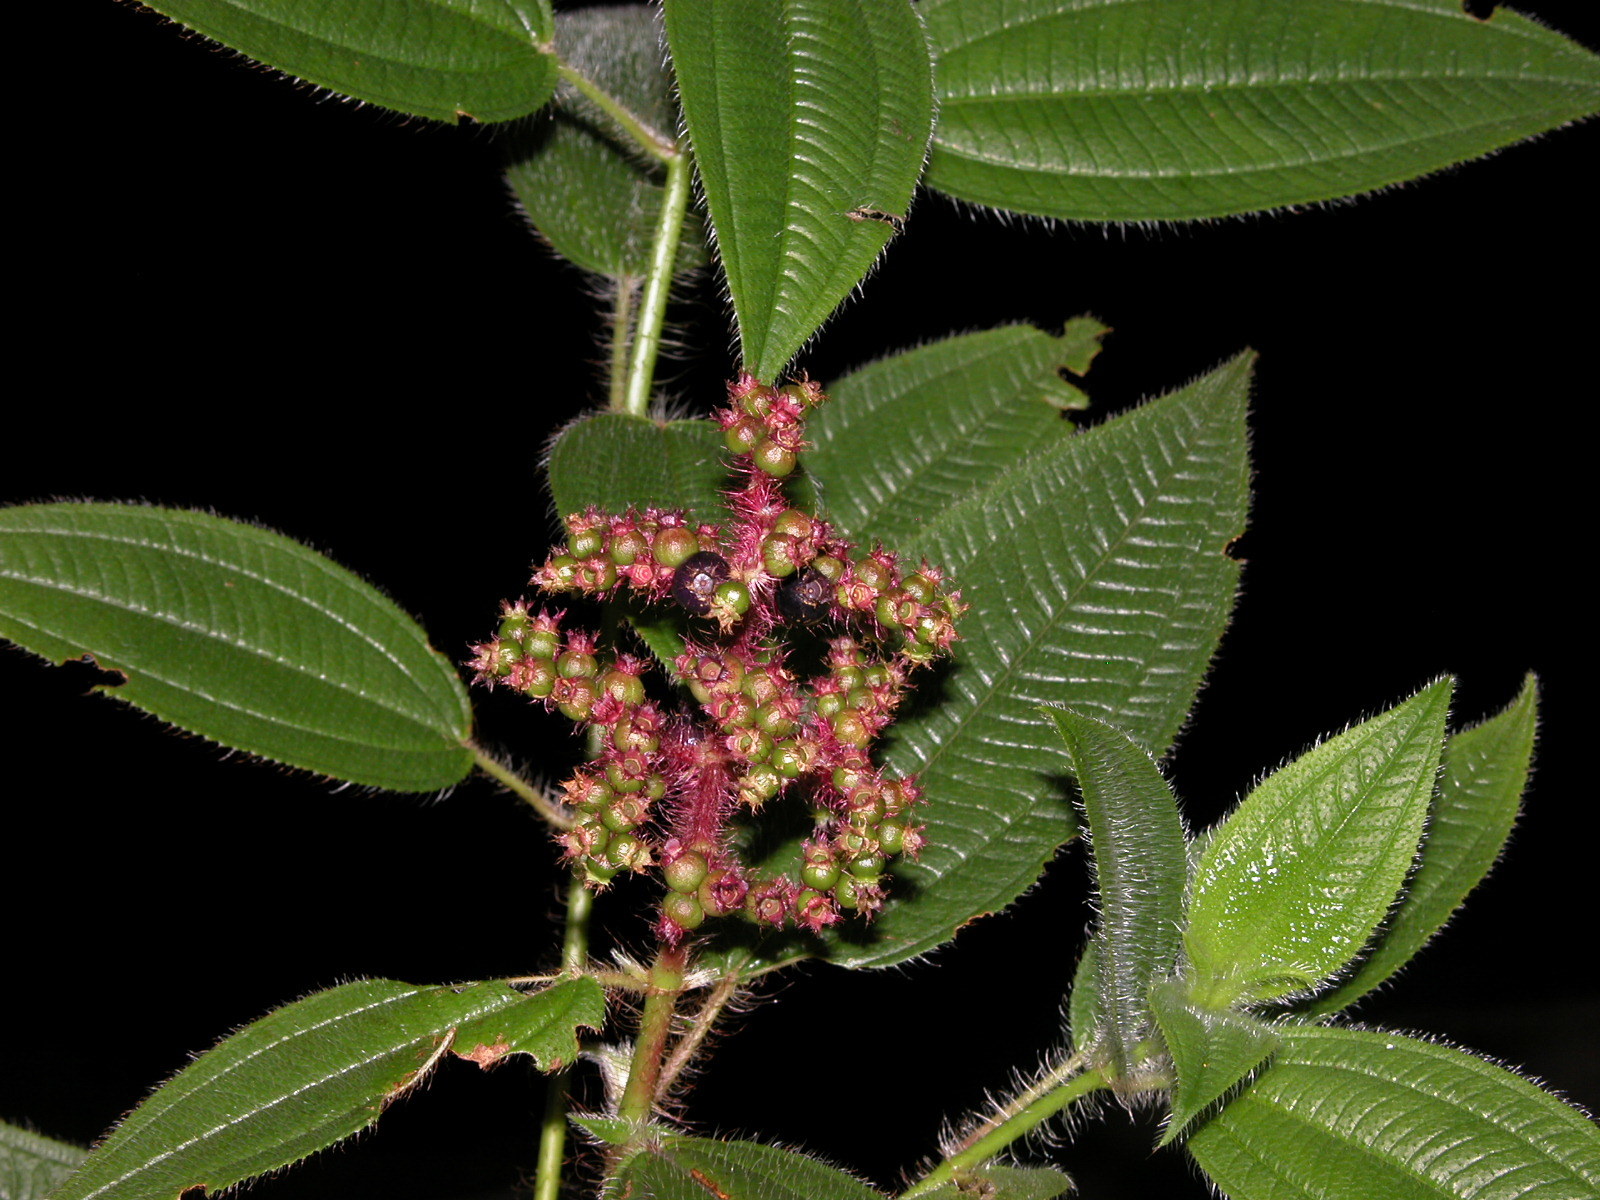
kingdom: Plantae
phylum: Tracheophyta
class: Magnoliopsida
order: Myrtales
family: Melastomataceae
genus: Miconia
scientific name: Miconia lacera
